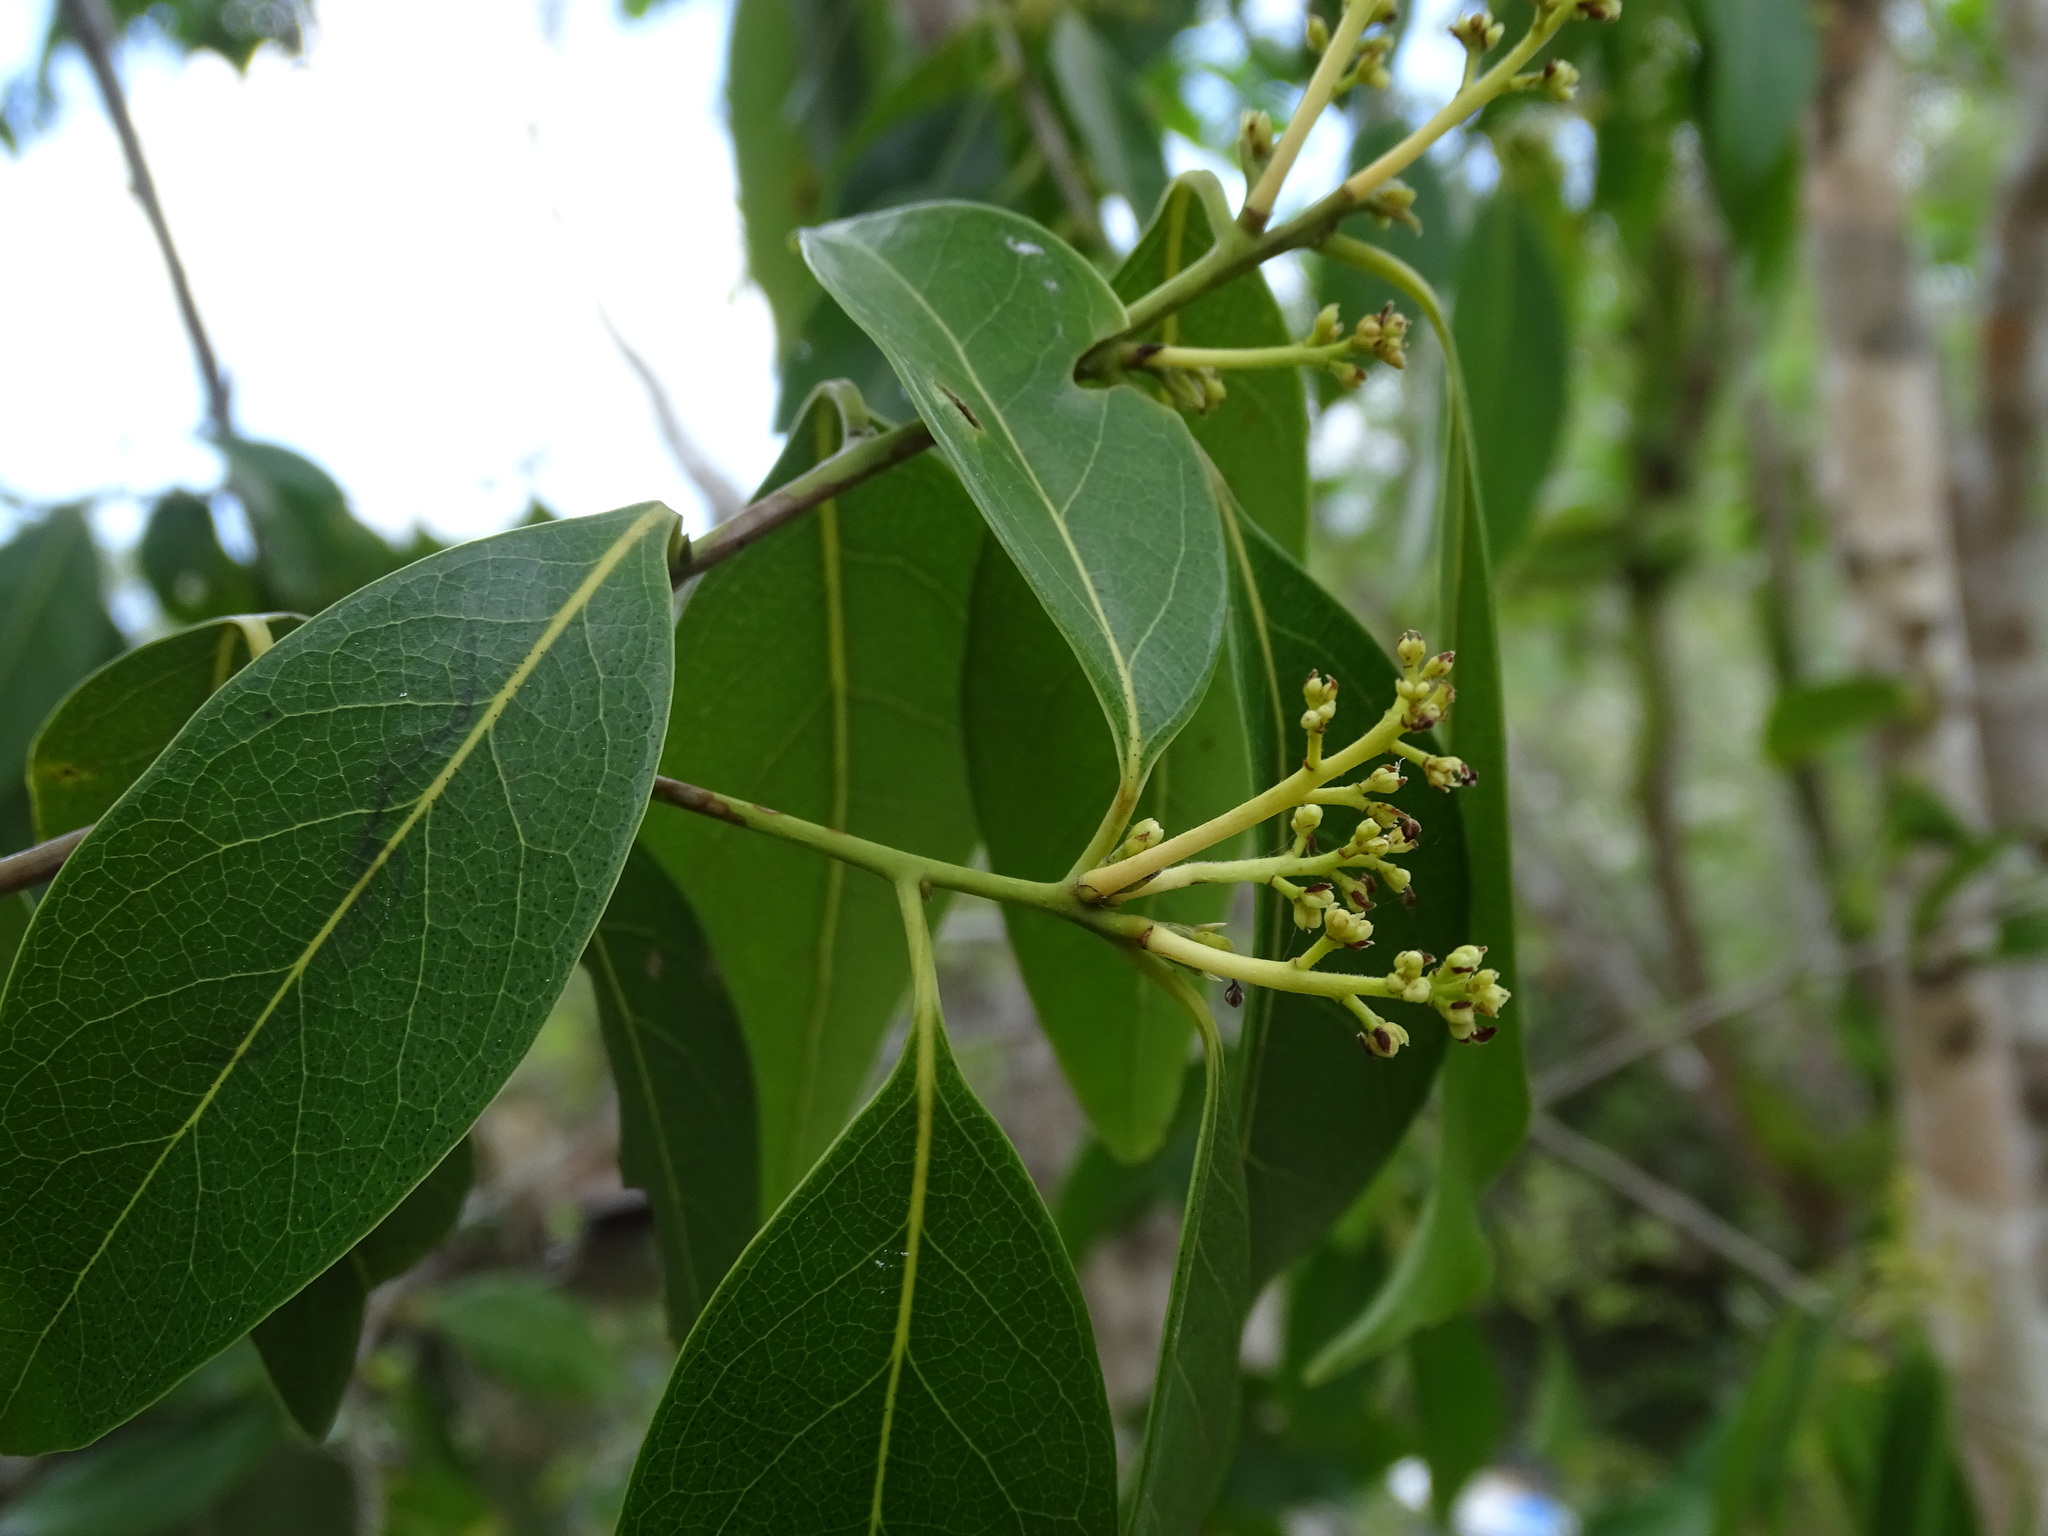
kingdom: Plantae
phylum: Tracheophyta
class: Magnoliopsida
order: Laurales
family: Lauraceae
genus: Damburneya
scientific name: Damburneya
